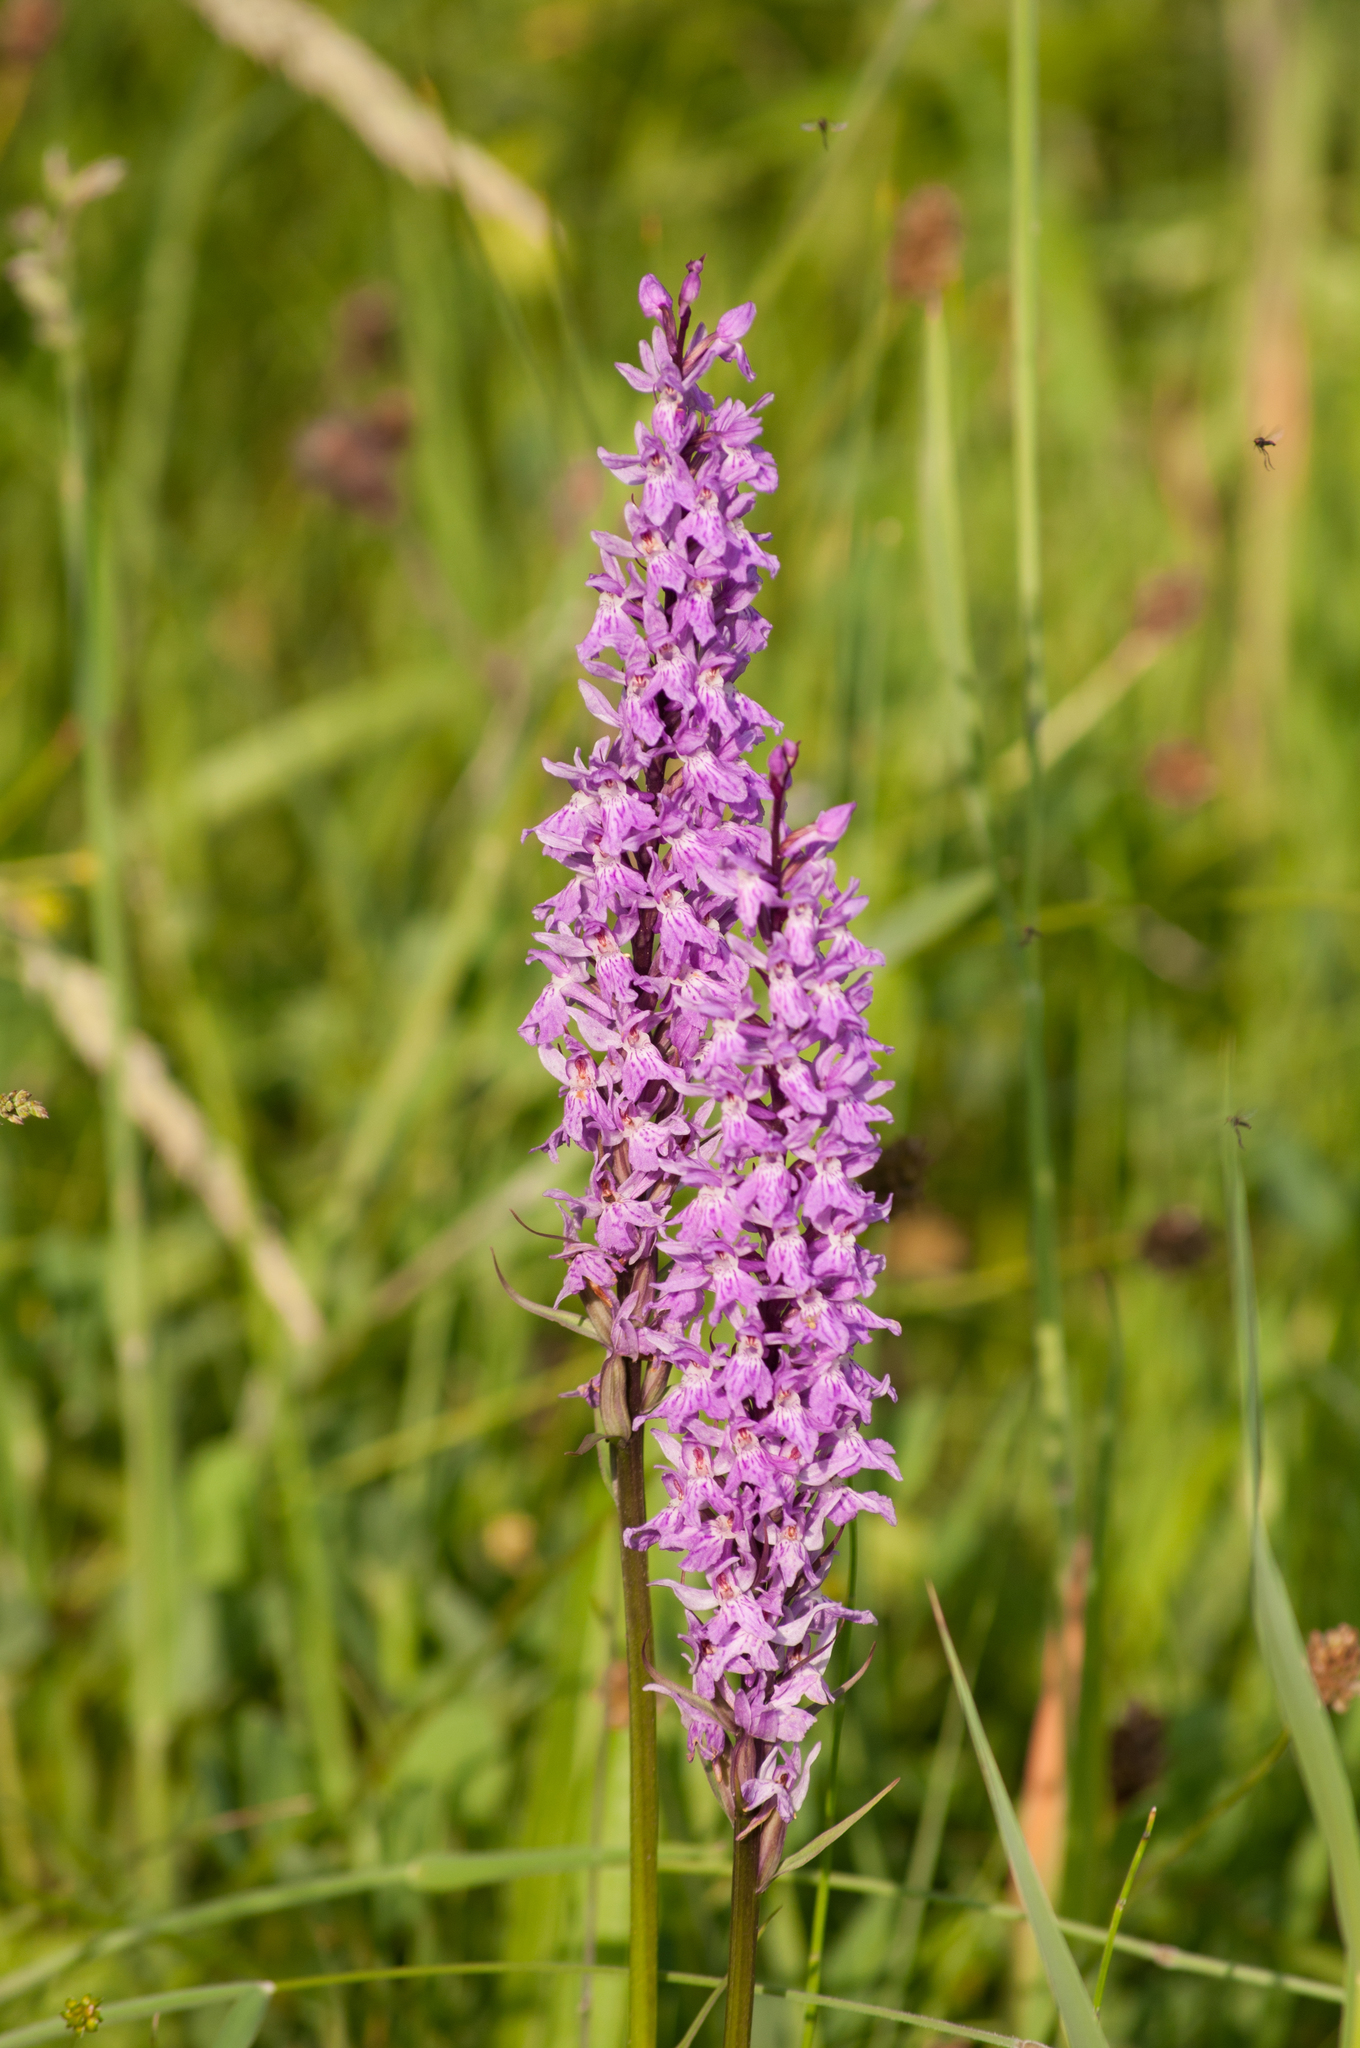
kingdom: Plantae
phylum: Tracheophyta
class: Liliopsida
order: Asparagales
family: Orchidaceae
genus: Dactylorhiza
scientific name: Dactylorhiza maculata
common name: Heath spotted-orchid
